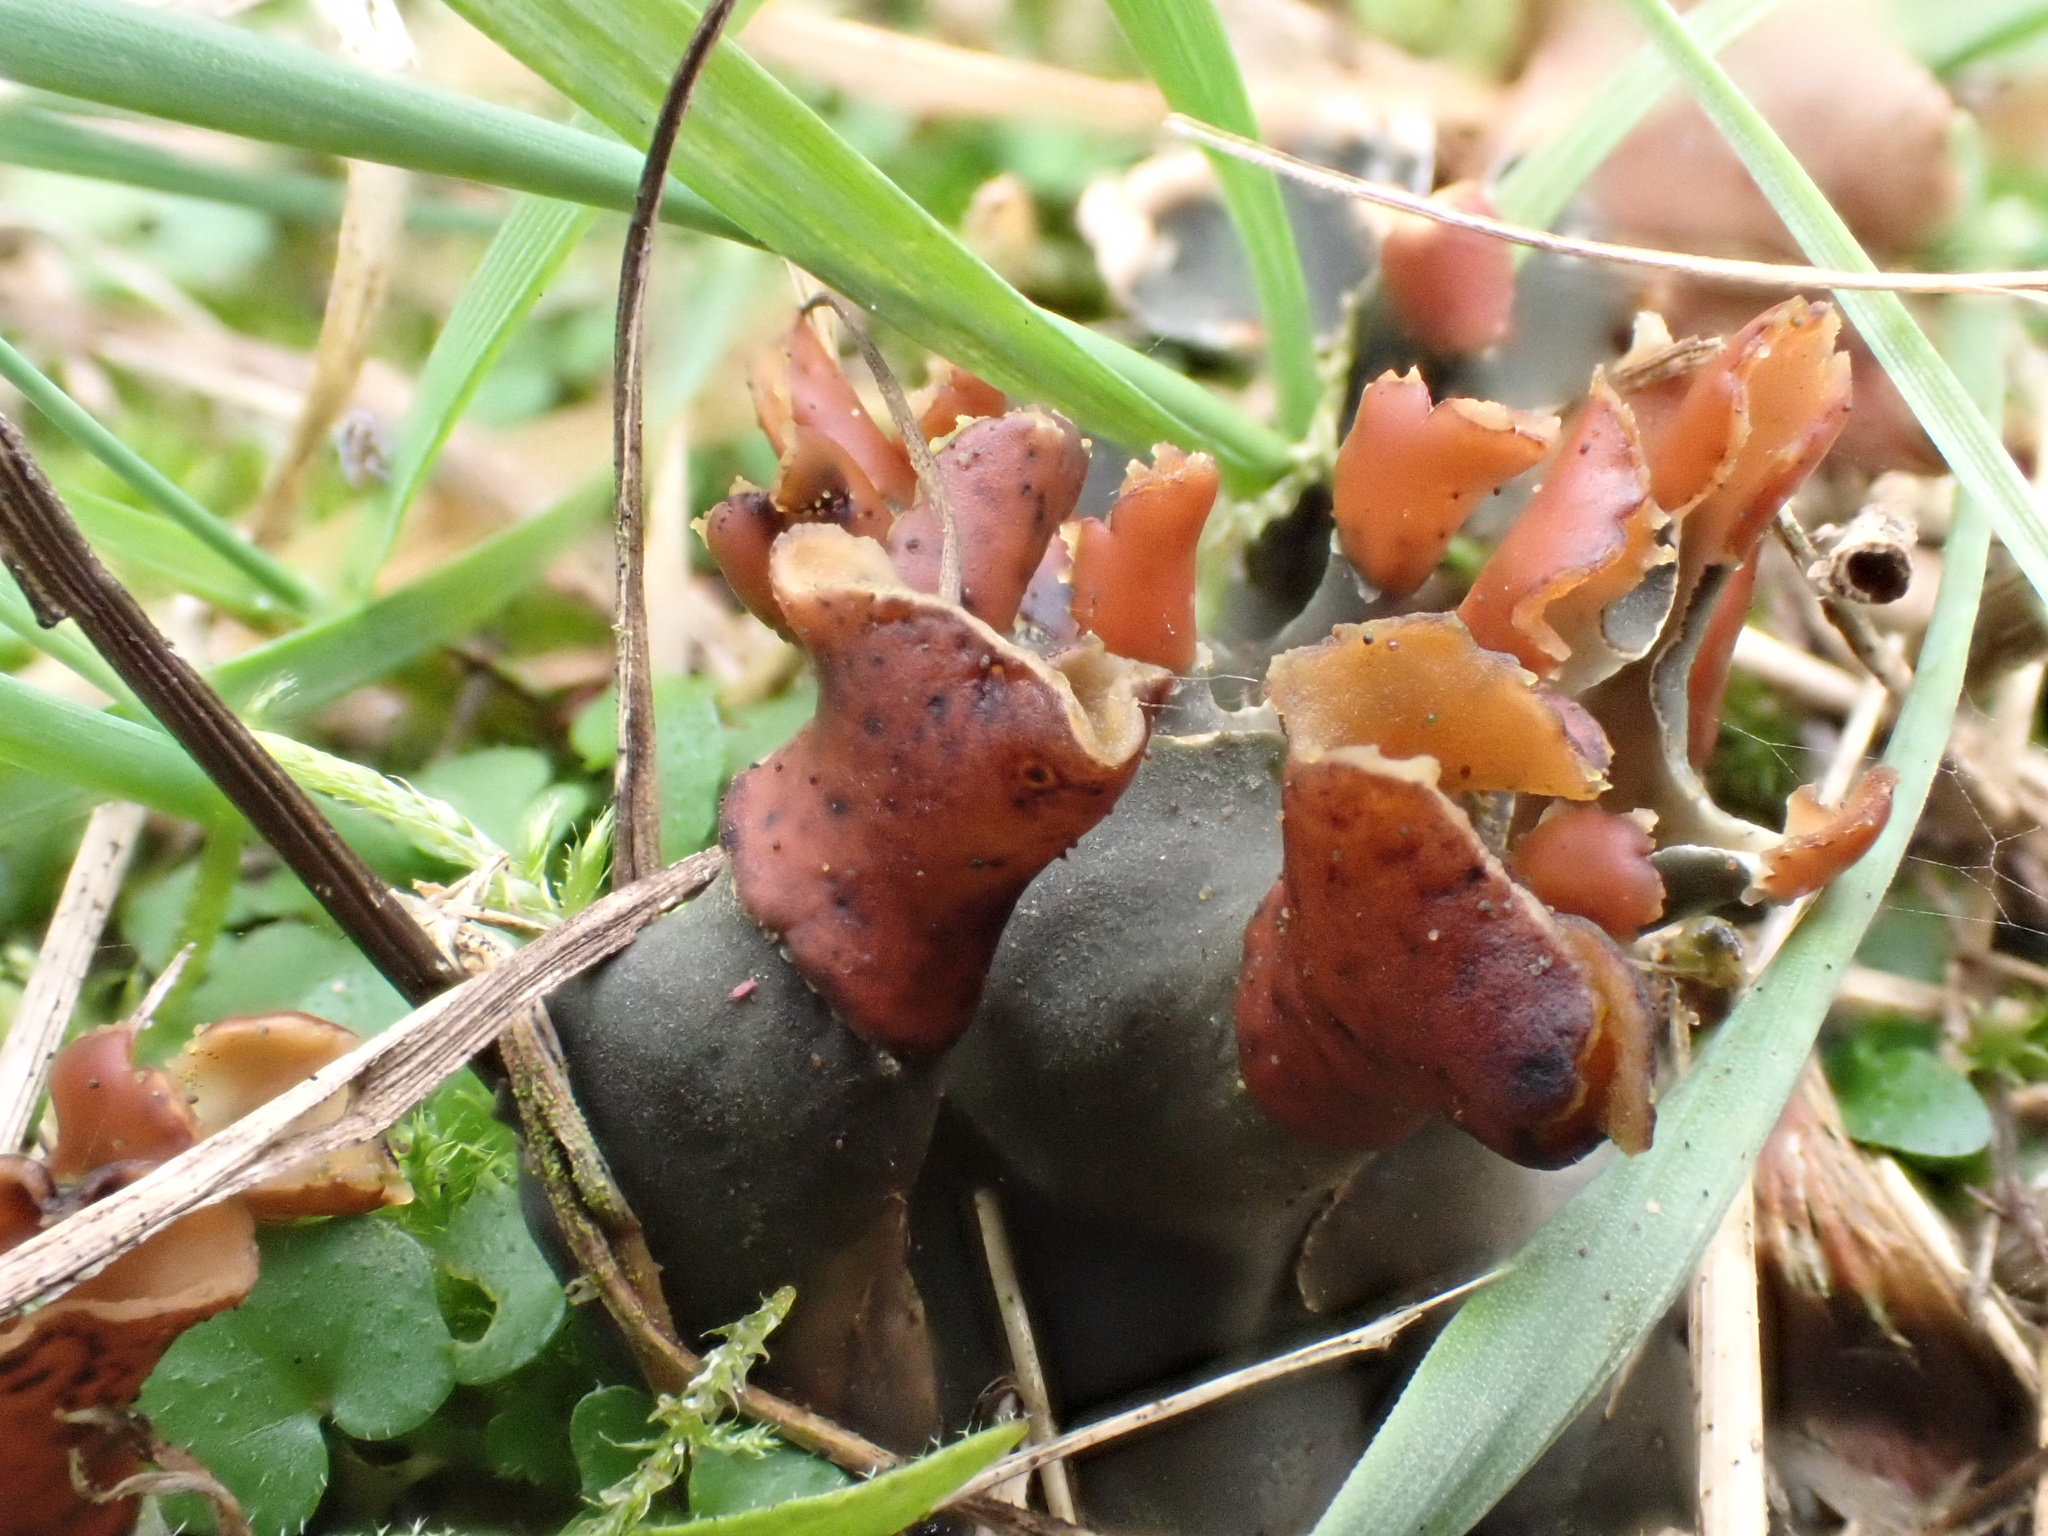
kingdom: Fungi
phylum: Ascomycota
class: Lecanoromycetes
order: Peltigerales
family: Peltigeraceae
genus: Peltigera
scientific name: Peltigera didactyla
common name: Alternating dog lichen
